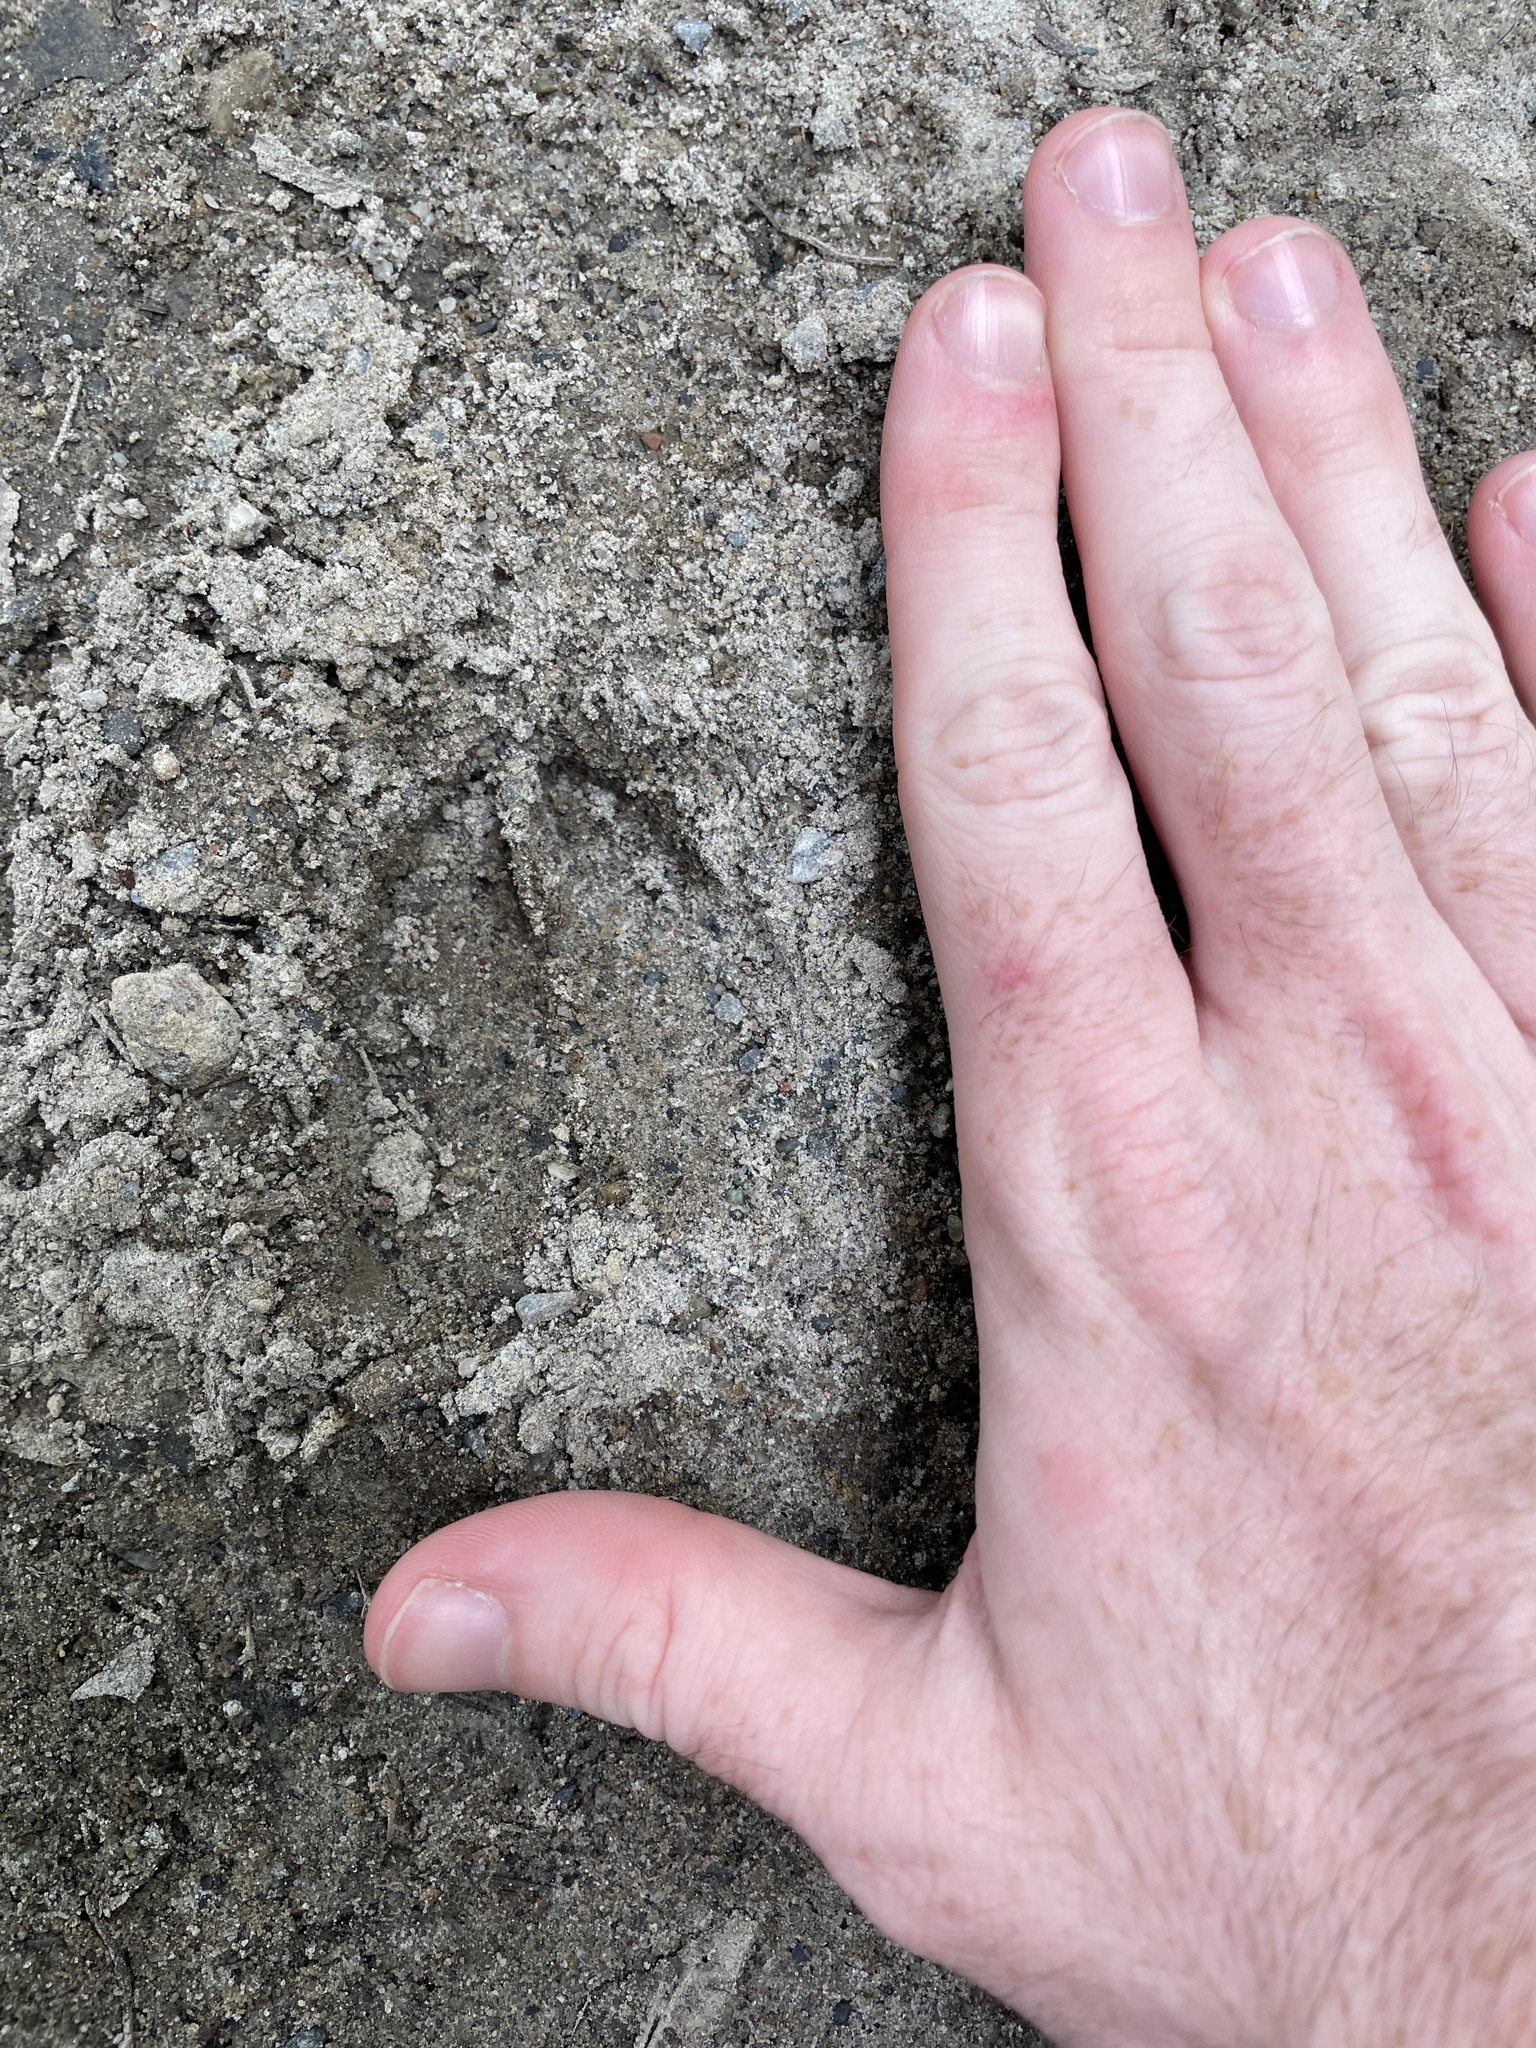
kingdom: Animalia
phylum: Chordata
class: Mammalia
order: Artiodactyla
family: Cervidae
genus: Odocoileus
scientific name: Odocoileus virginianus
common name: White-tailed deer
